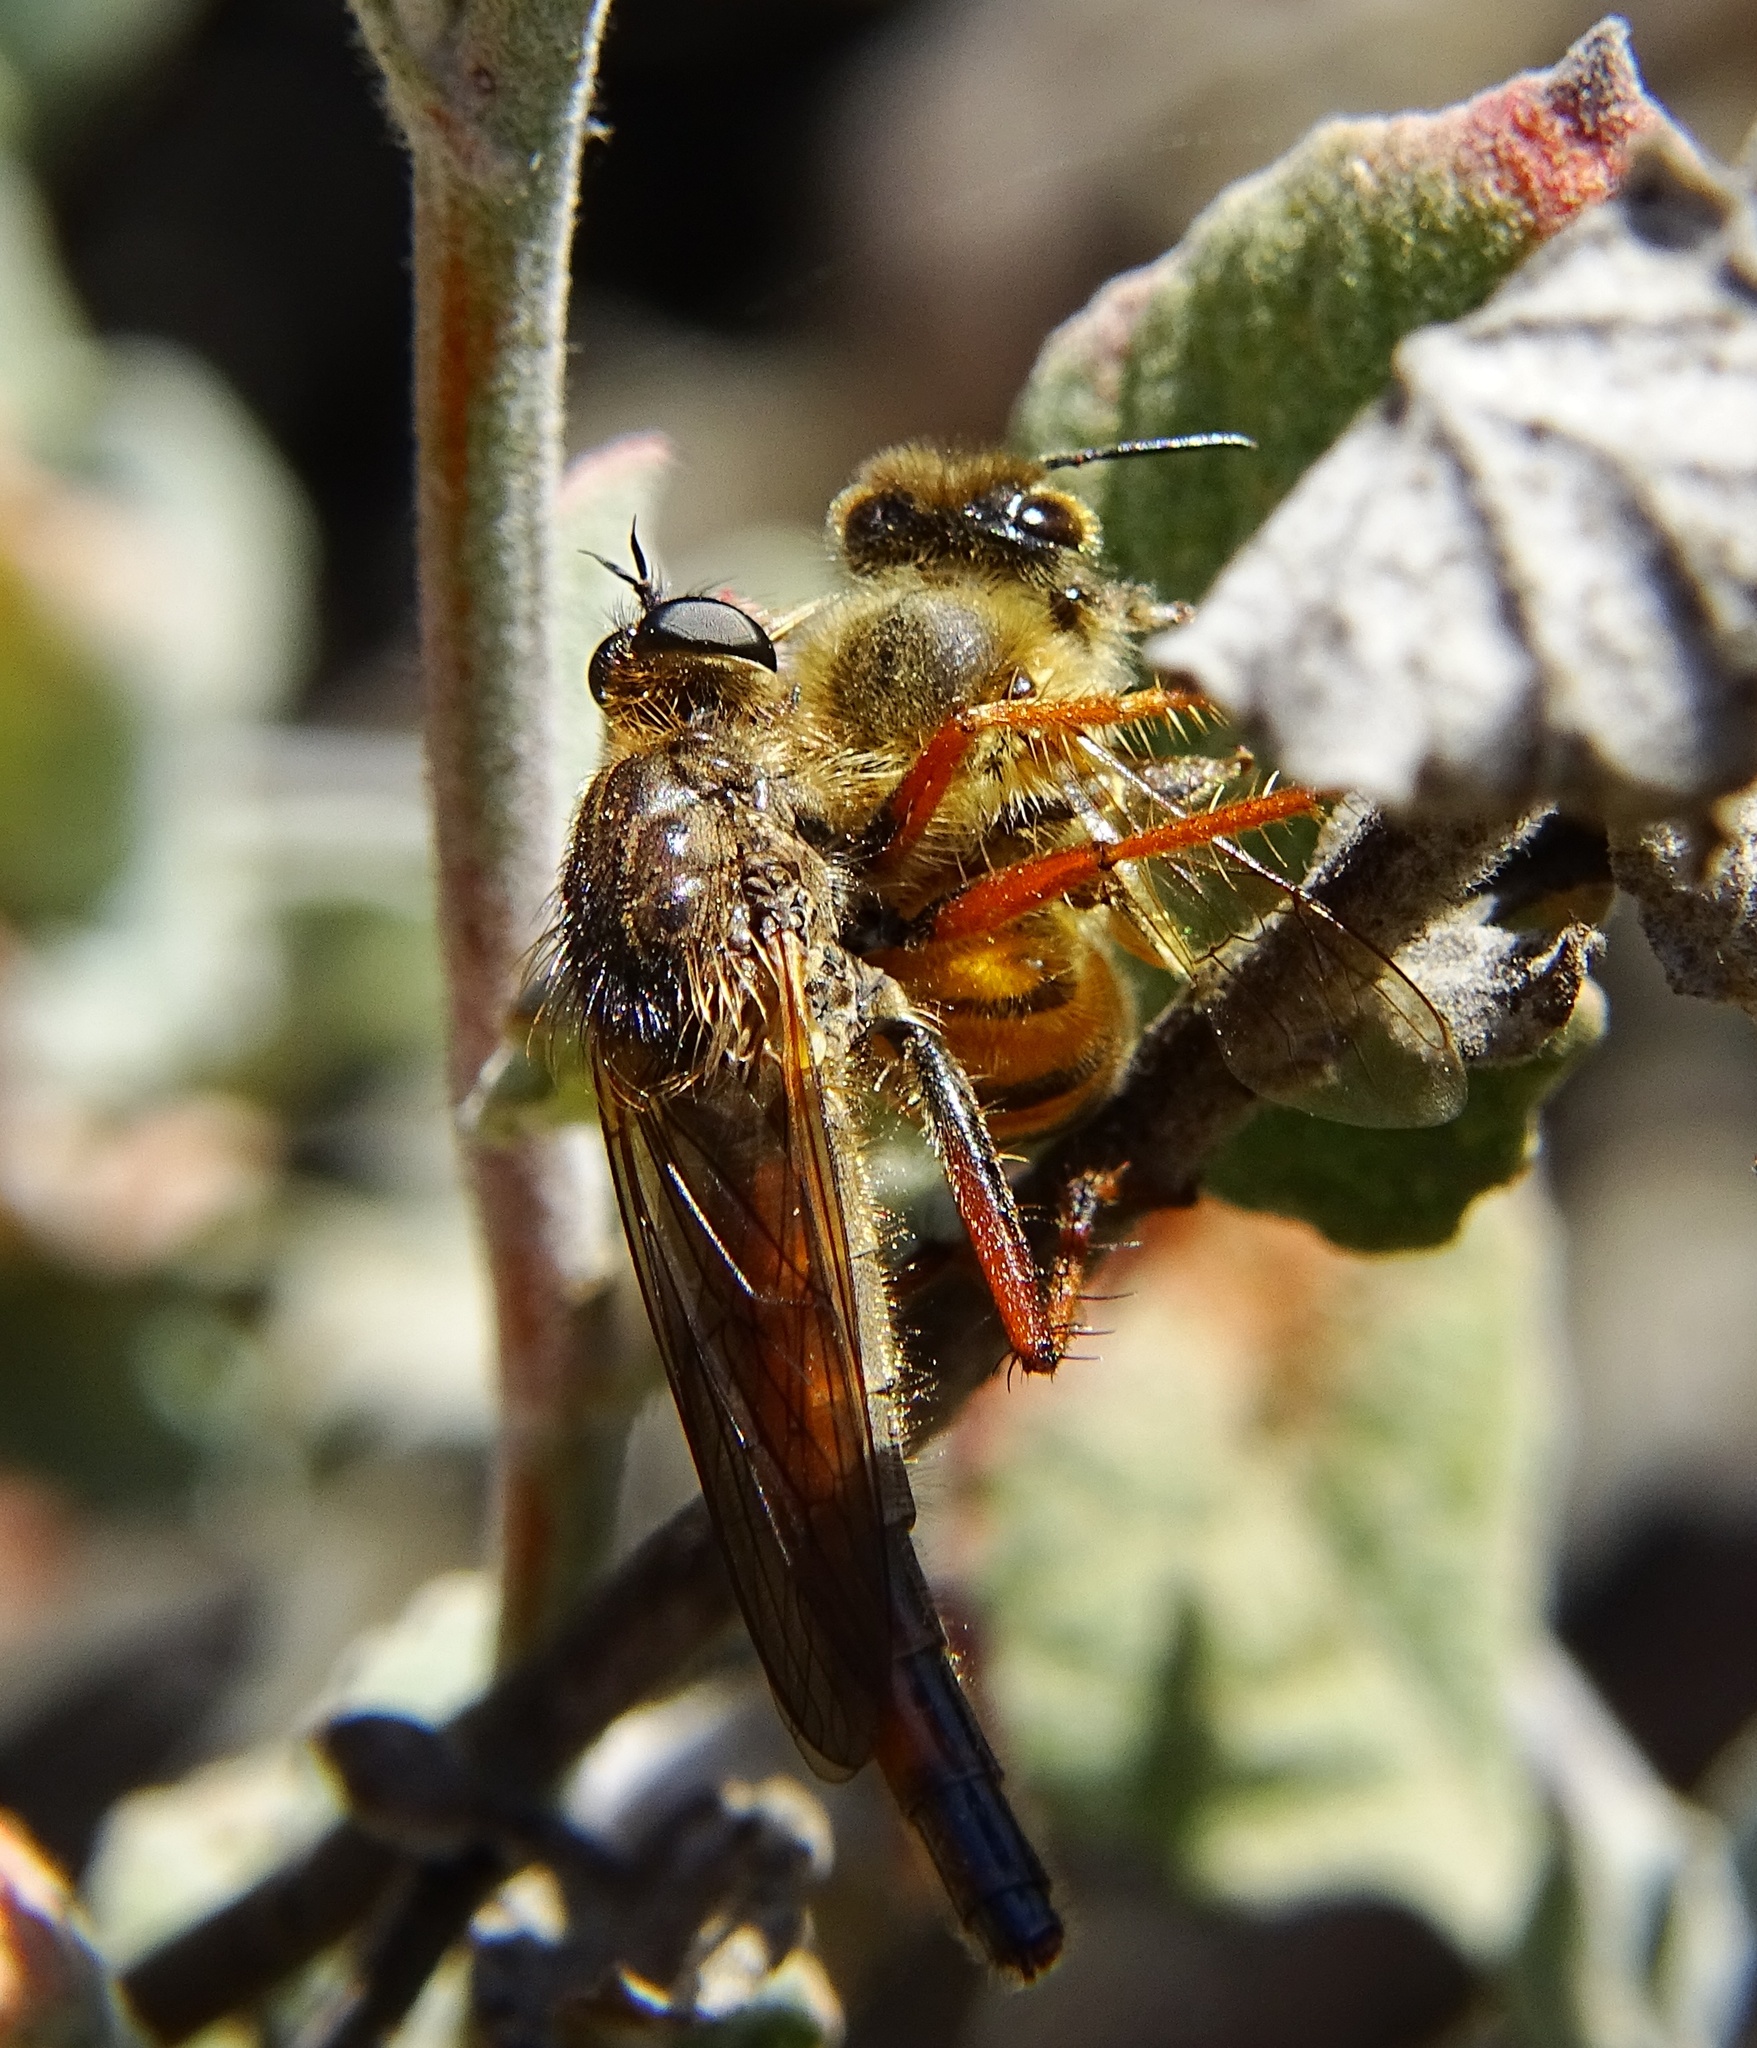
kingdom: Animalia
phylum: Arthropoda
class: Insecta
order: Hymenoptera
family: Apidae
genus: Apis
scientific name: Apis mellifera
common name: Honey bee
